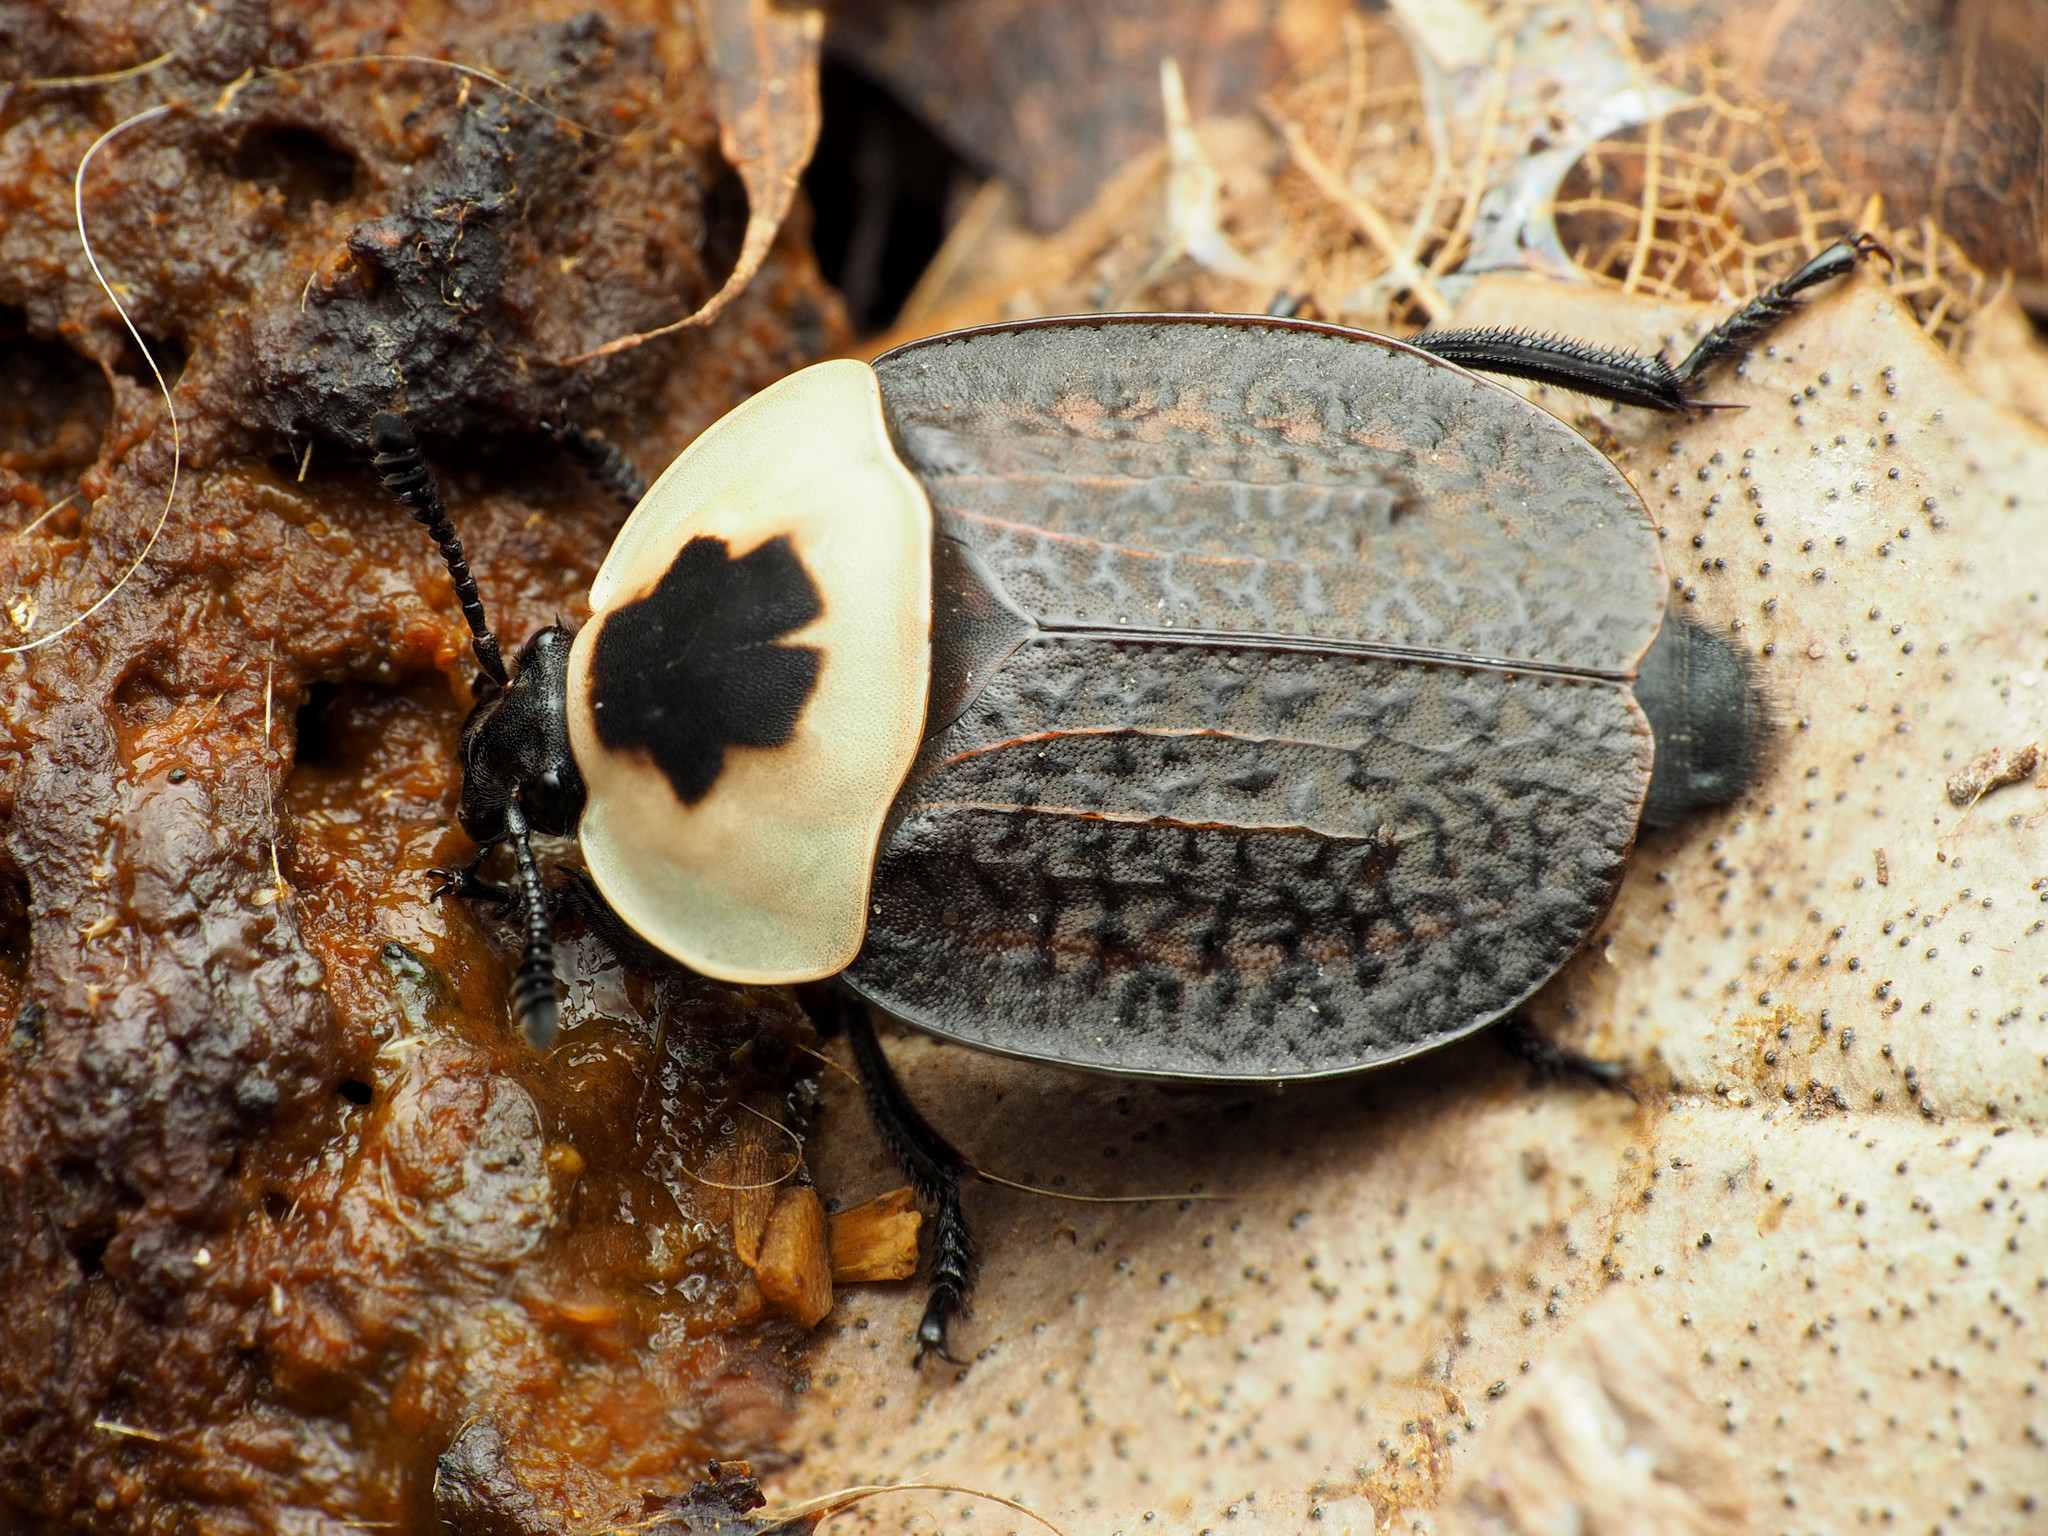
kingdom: Animalia
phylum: Arthropoda
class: Insecta
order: Coleoptera
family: Staphylinidae
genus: Necrophila
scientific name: Necrophila americana
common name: American carrion beetle
